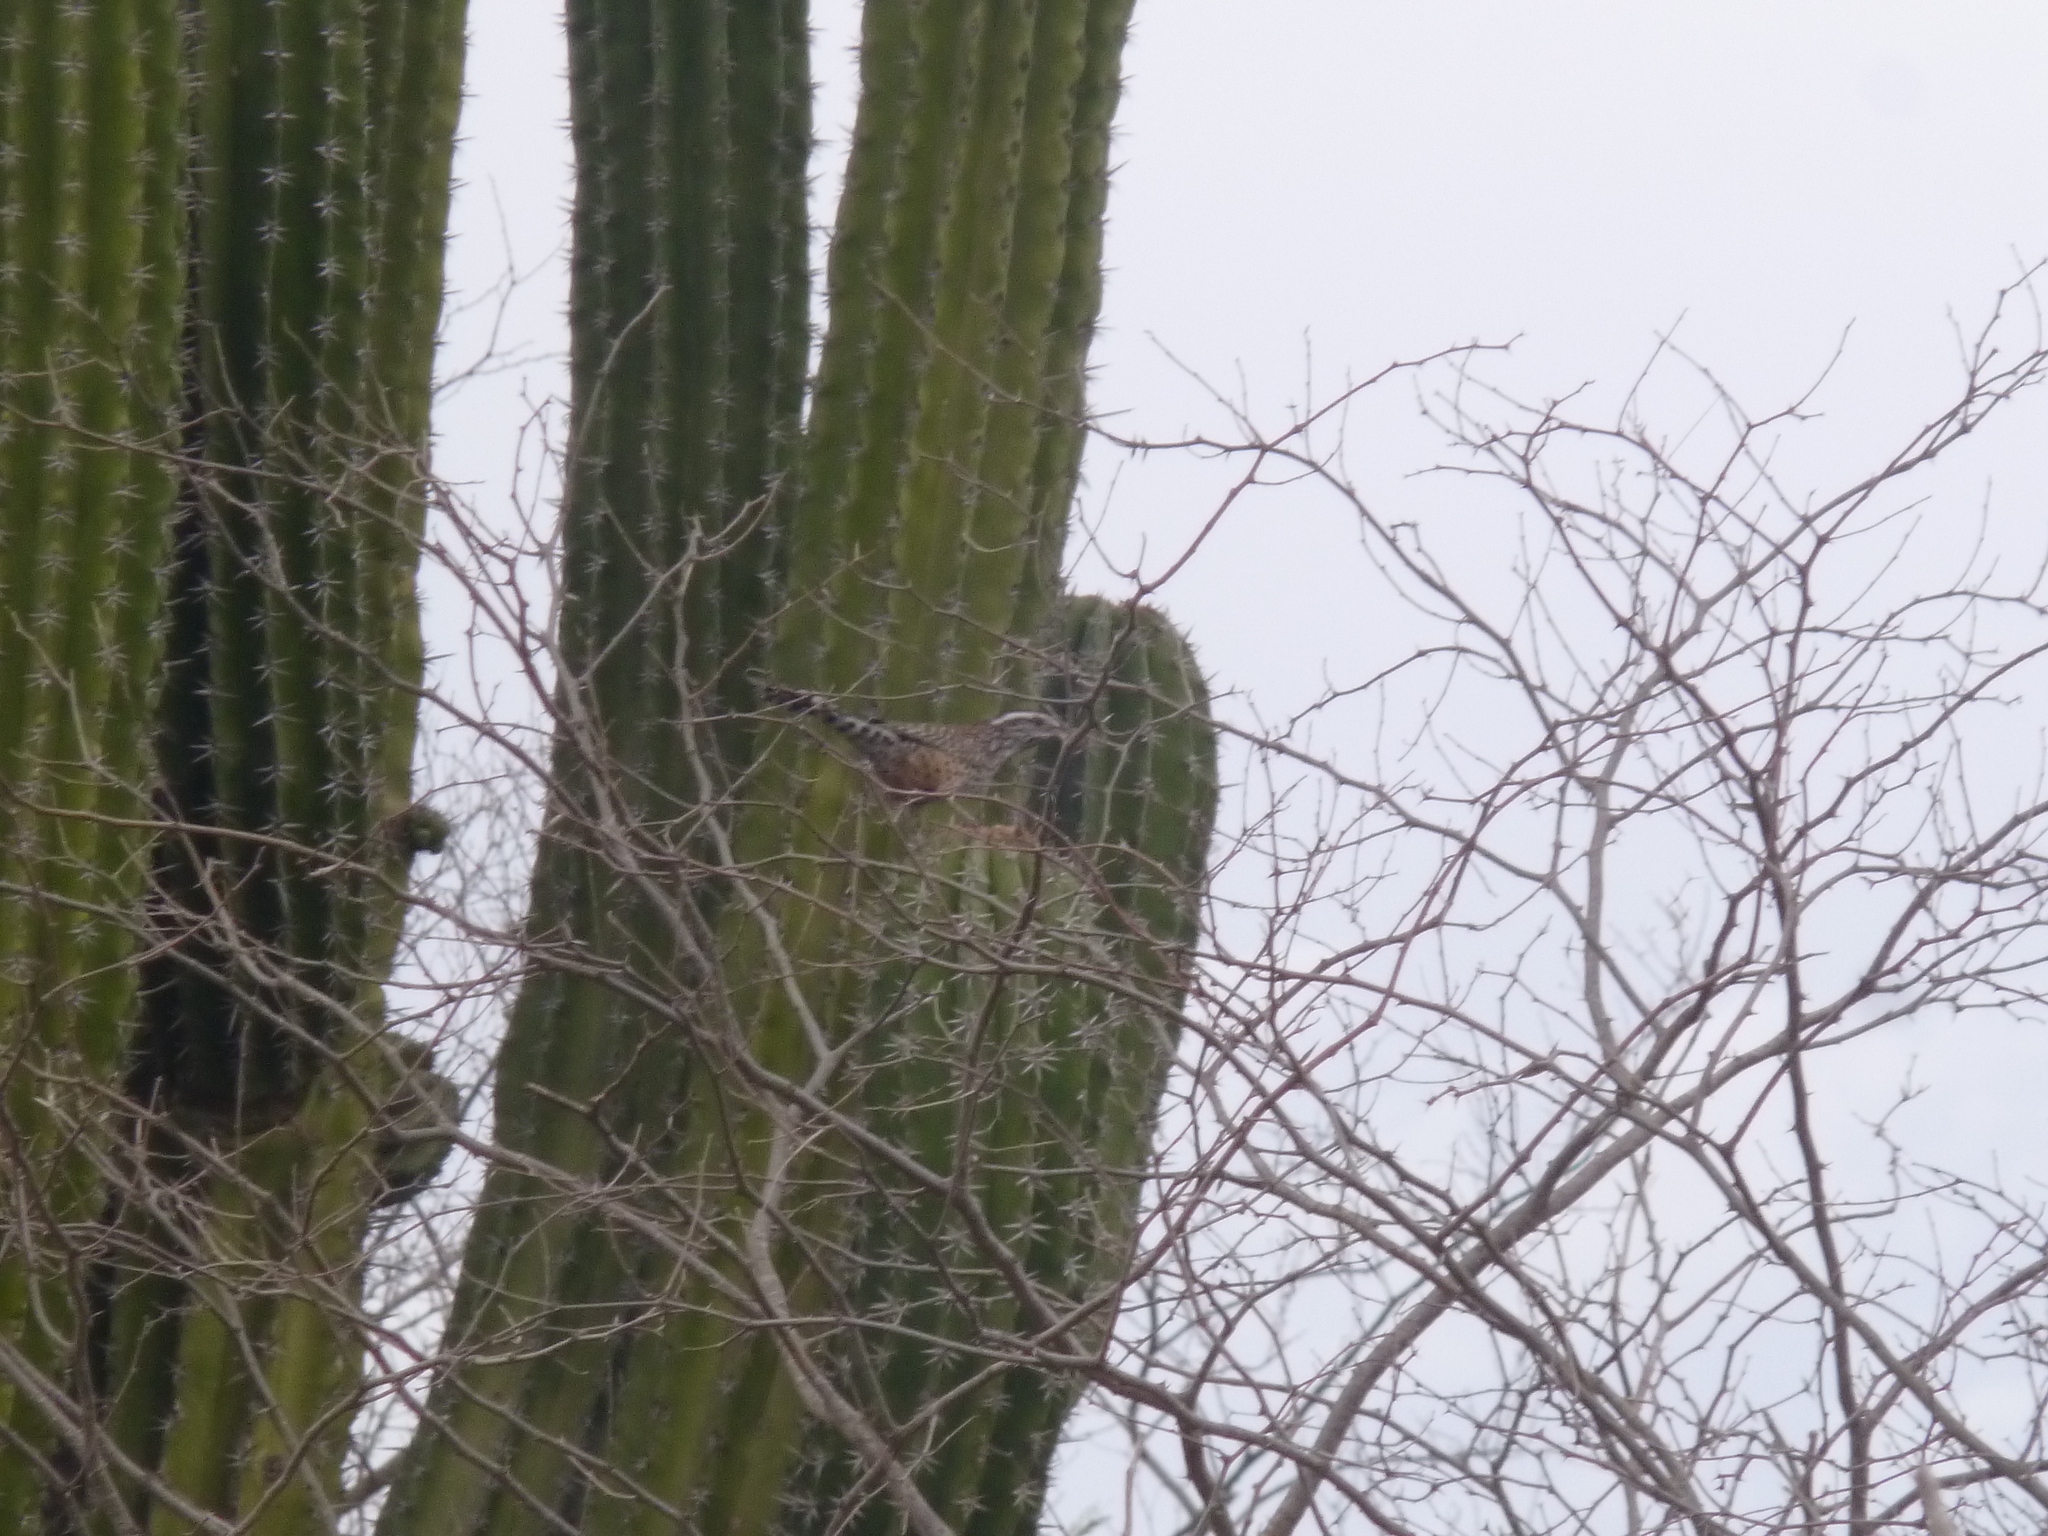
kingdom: Animalia
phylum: Chordata
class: Aves
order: Passeriformes
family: Troglodytidae
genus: Campylorhynchus
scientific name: Campylorhynchus brunneicapillus
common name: Cactus wren
